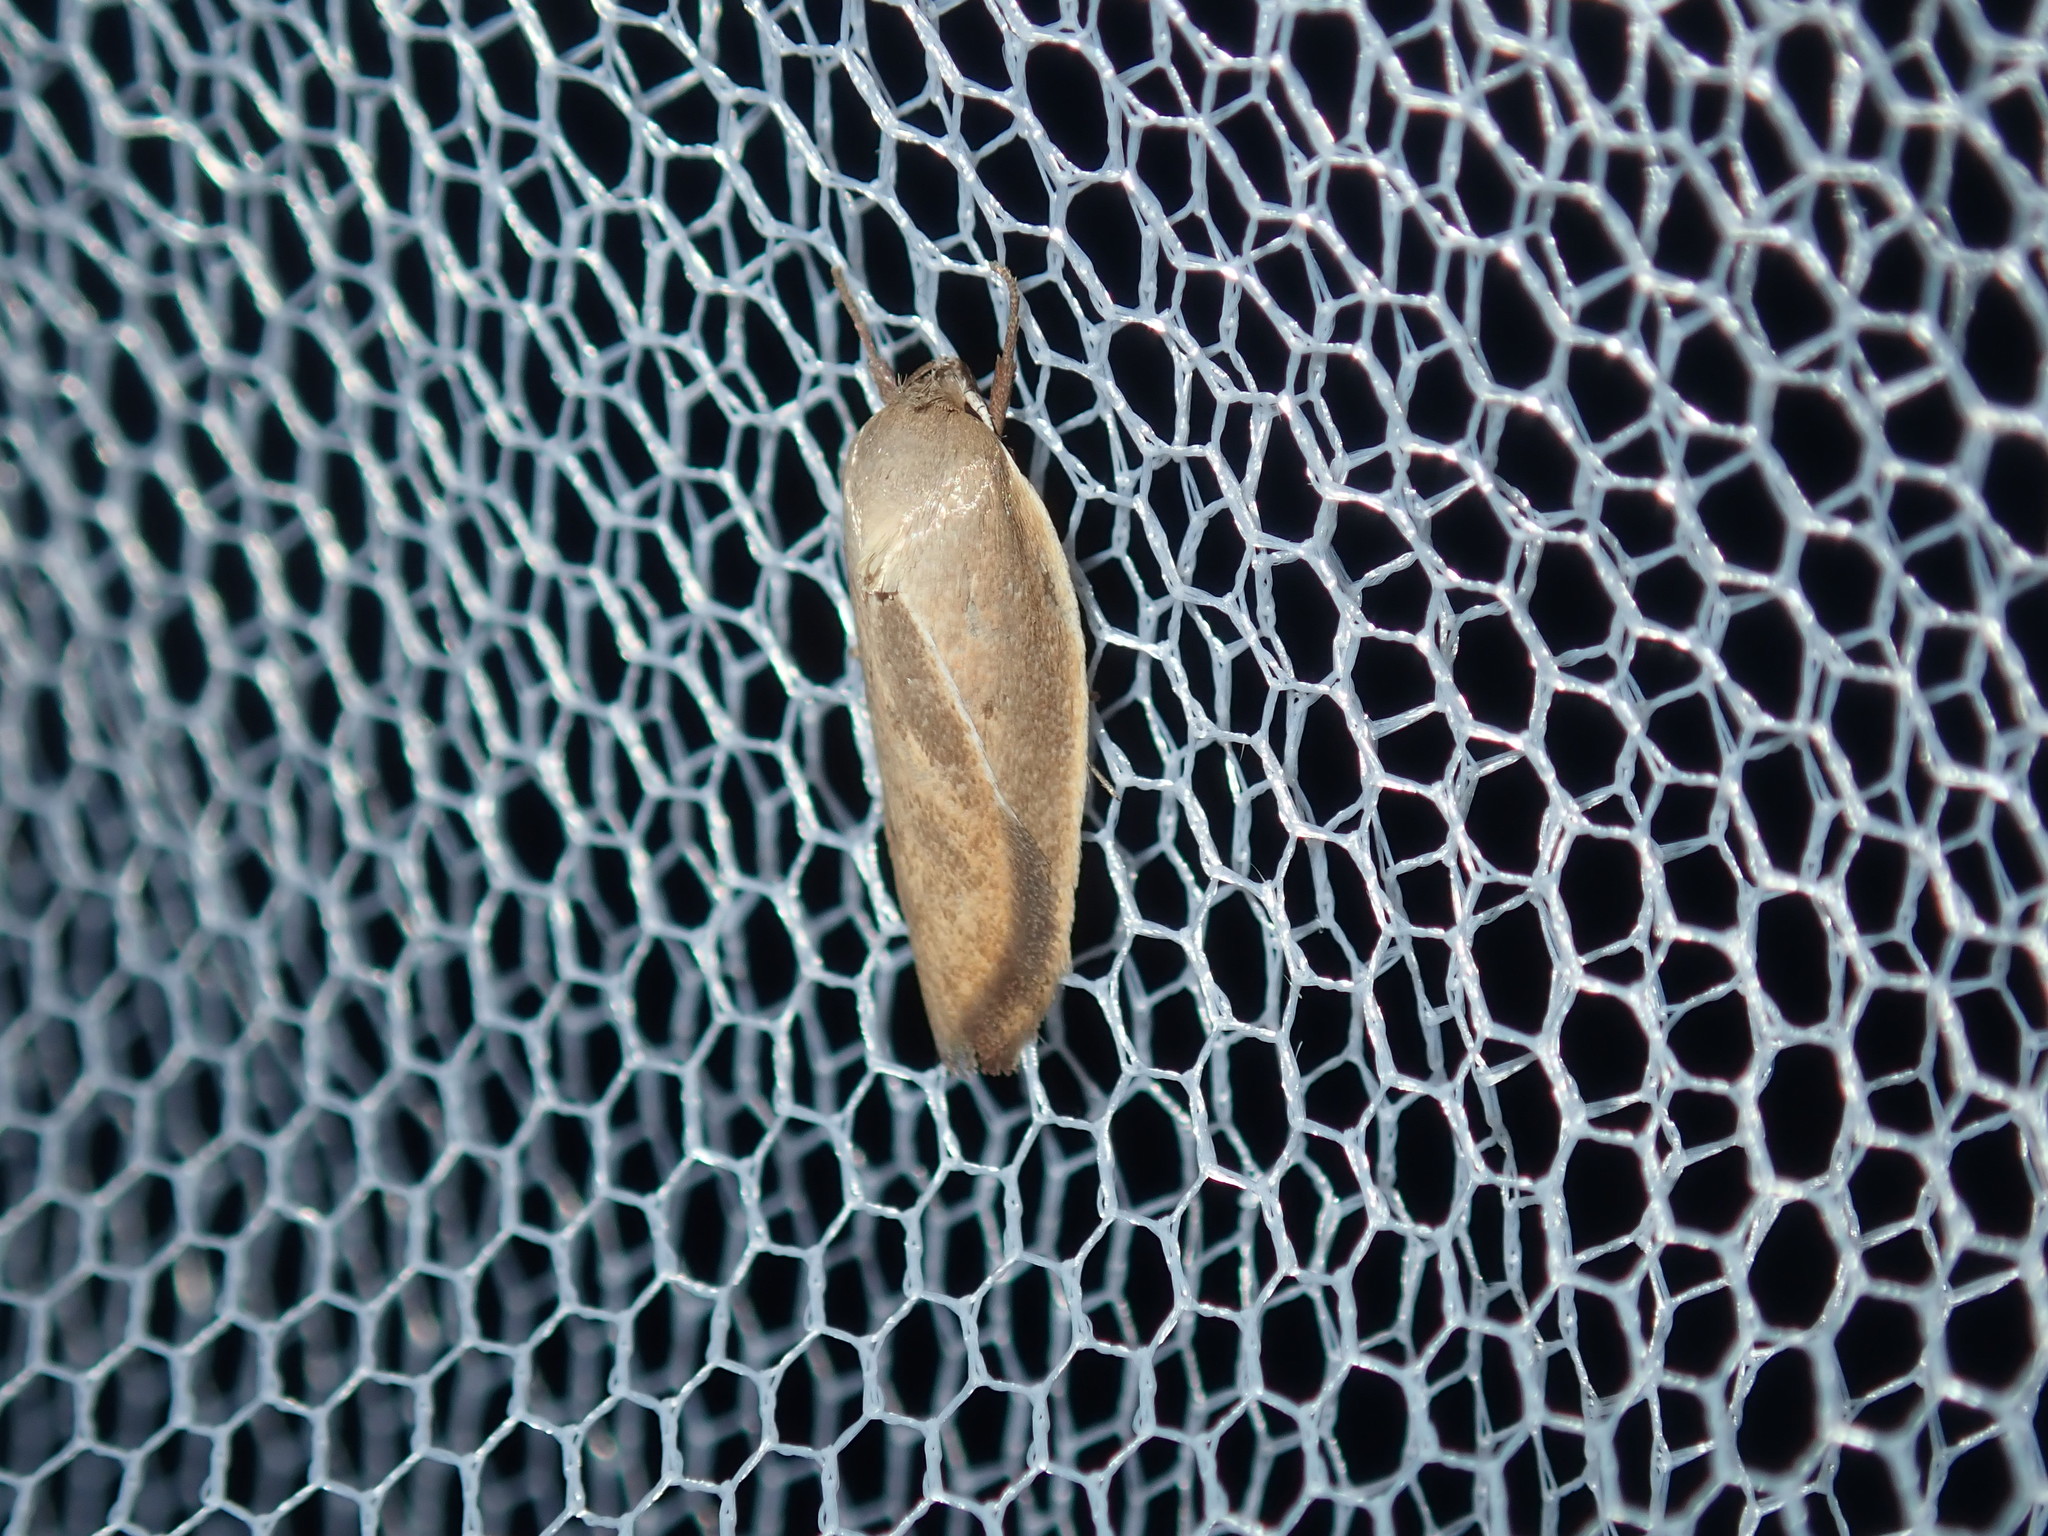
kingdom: Animalia
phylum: Arthropoda
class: Insecta
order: Lepidoptera
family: Oecophoridae
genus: Ptyoptila
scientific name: Ptyoptila matutinella
